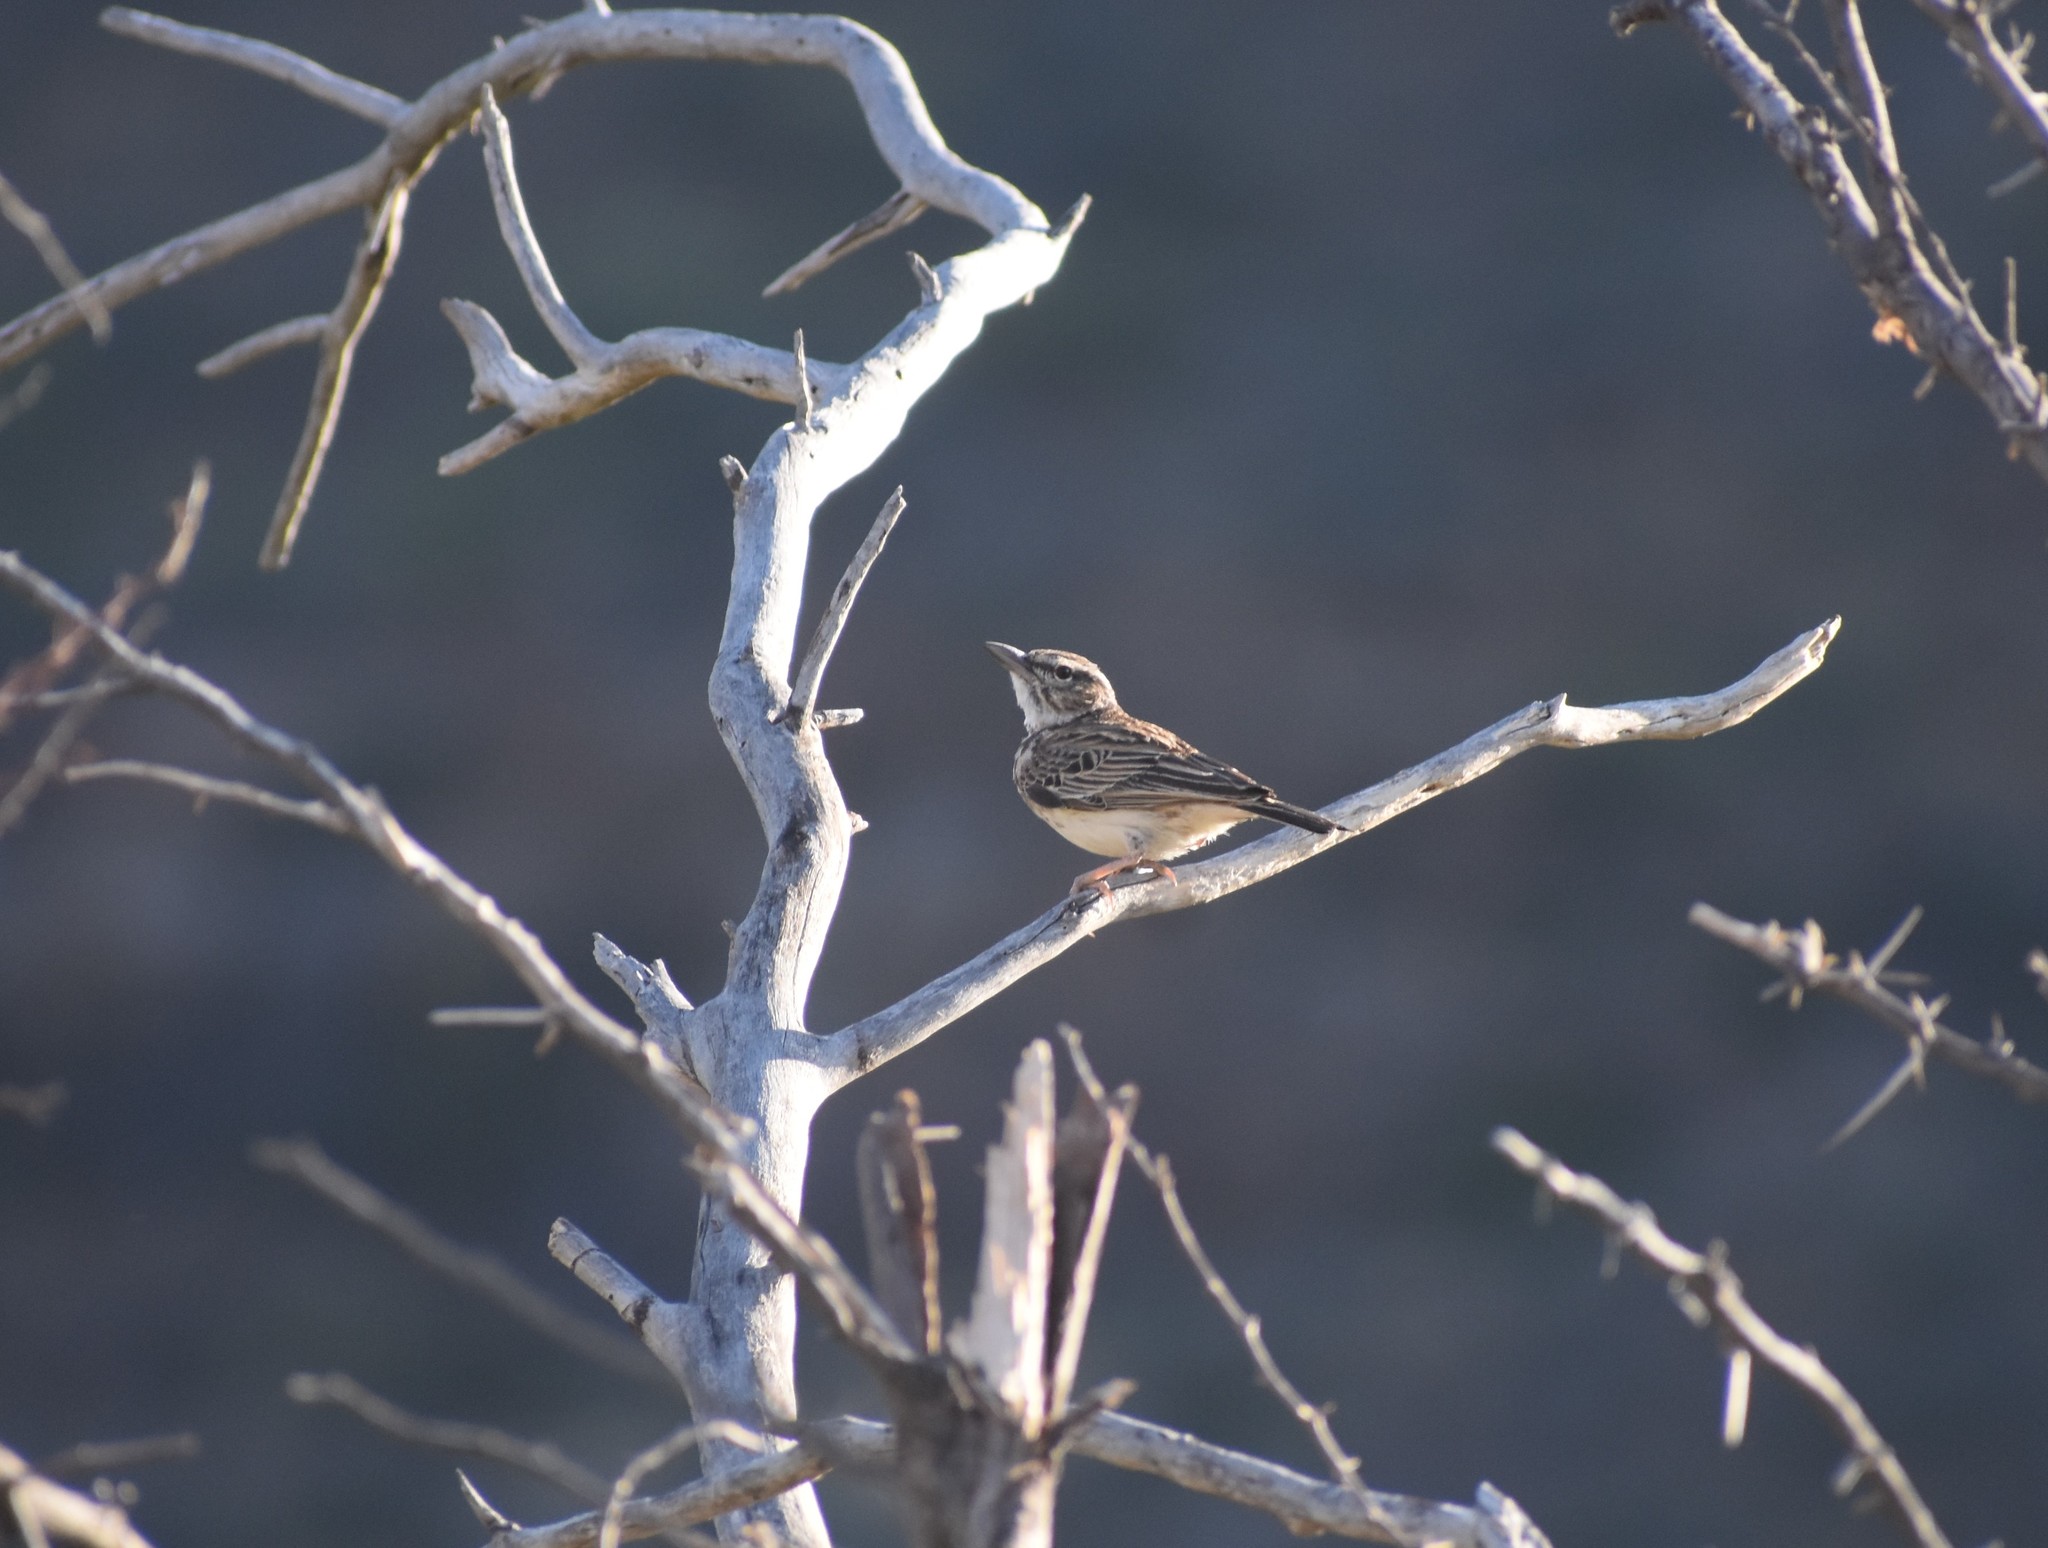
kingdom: Animalia
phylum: Chordata
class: Aves
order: Passeriformes
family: Alaudidae
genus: Calendulauda
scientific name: Calendulauda sabota
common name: Sabota lark
